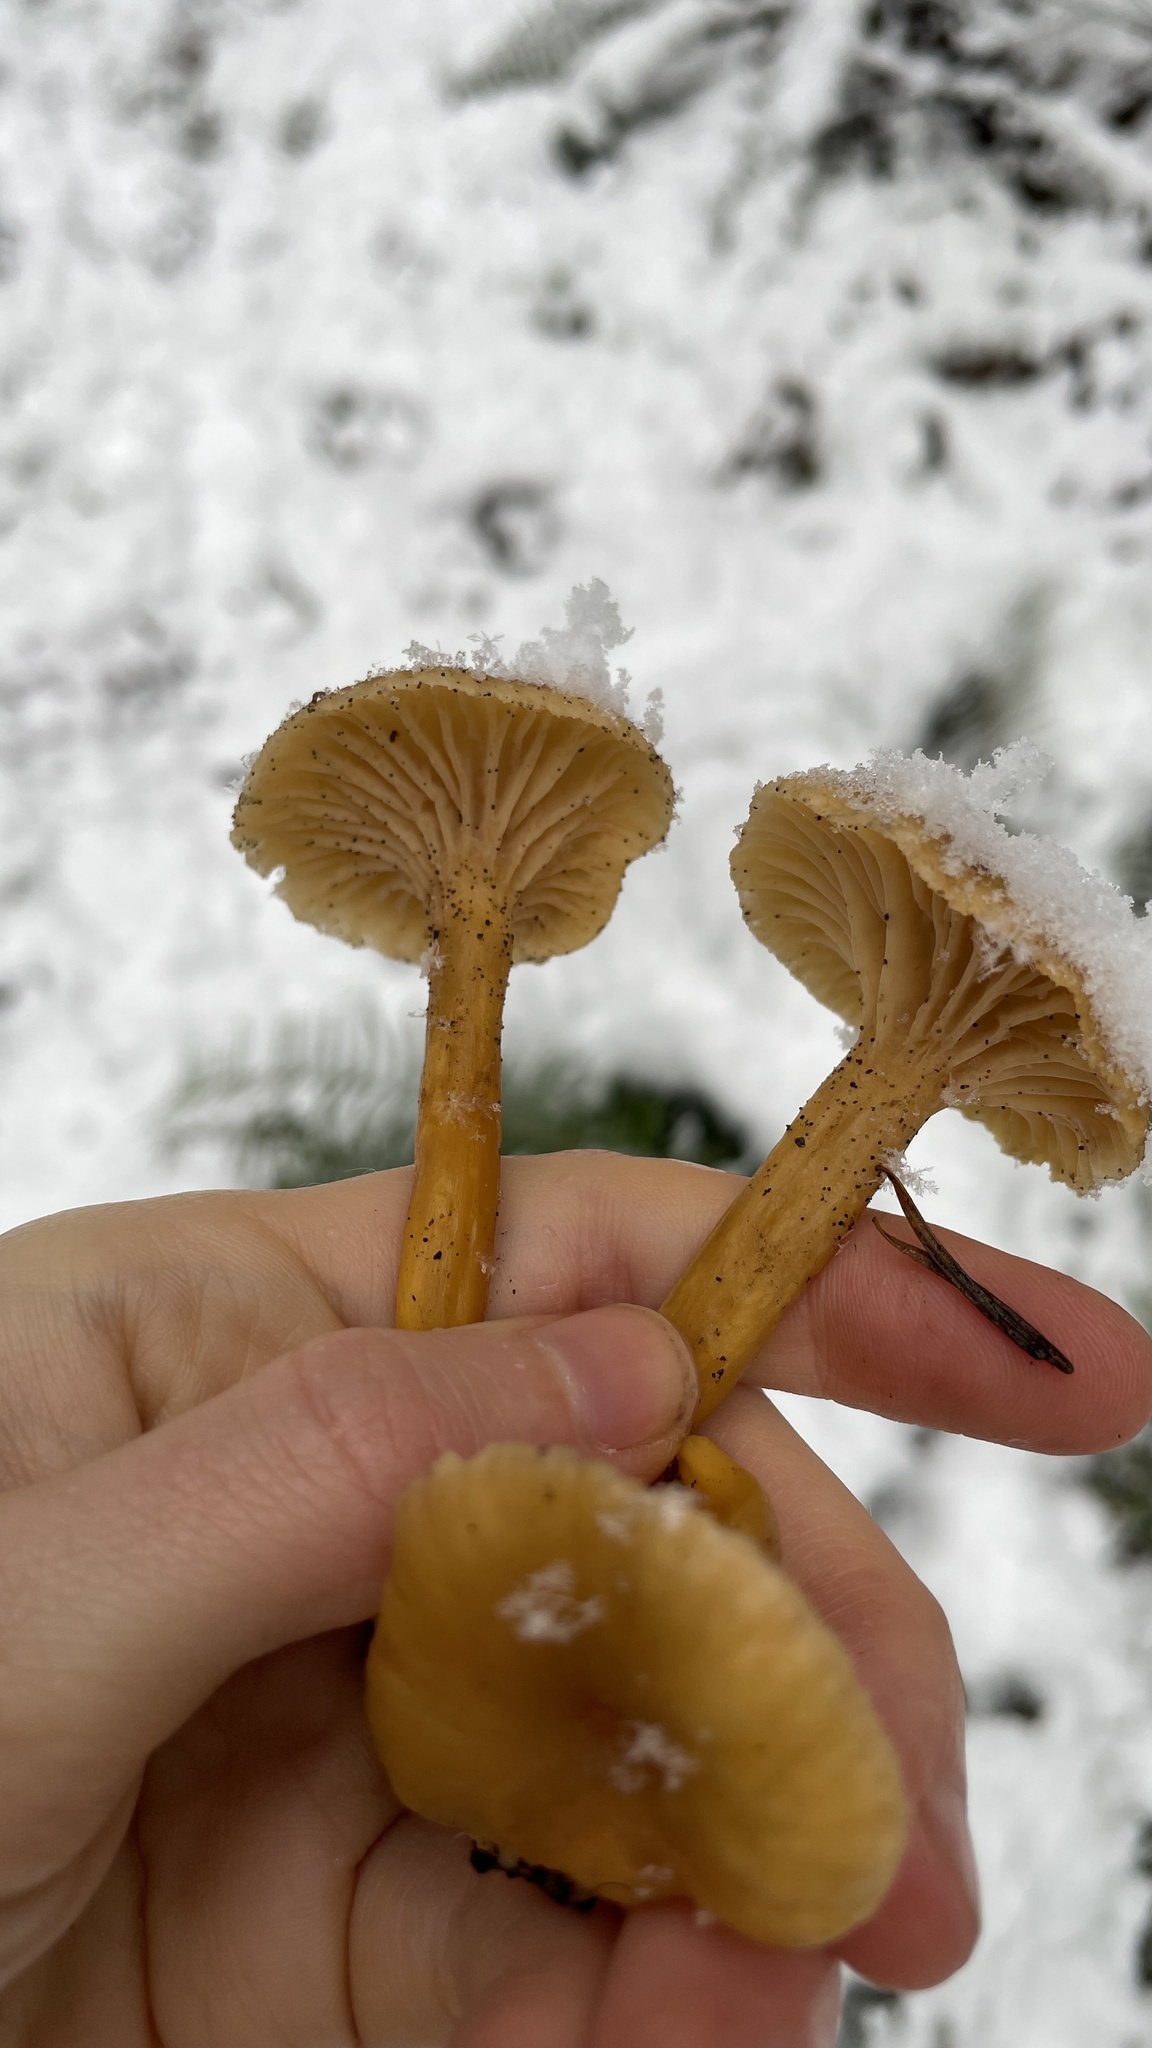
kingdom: Fungi
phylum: Basidiomycota
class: Agaricomycetes
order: Cantharellales
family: Hydnaceae
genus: Craterellus
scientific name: Craterellus tubaeformis
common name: Yellowfoot
